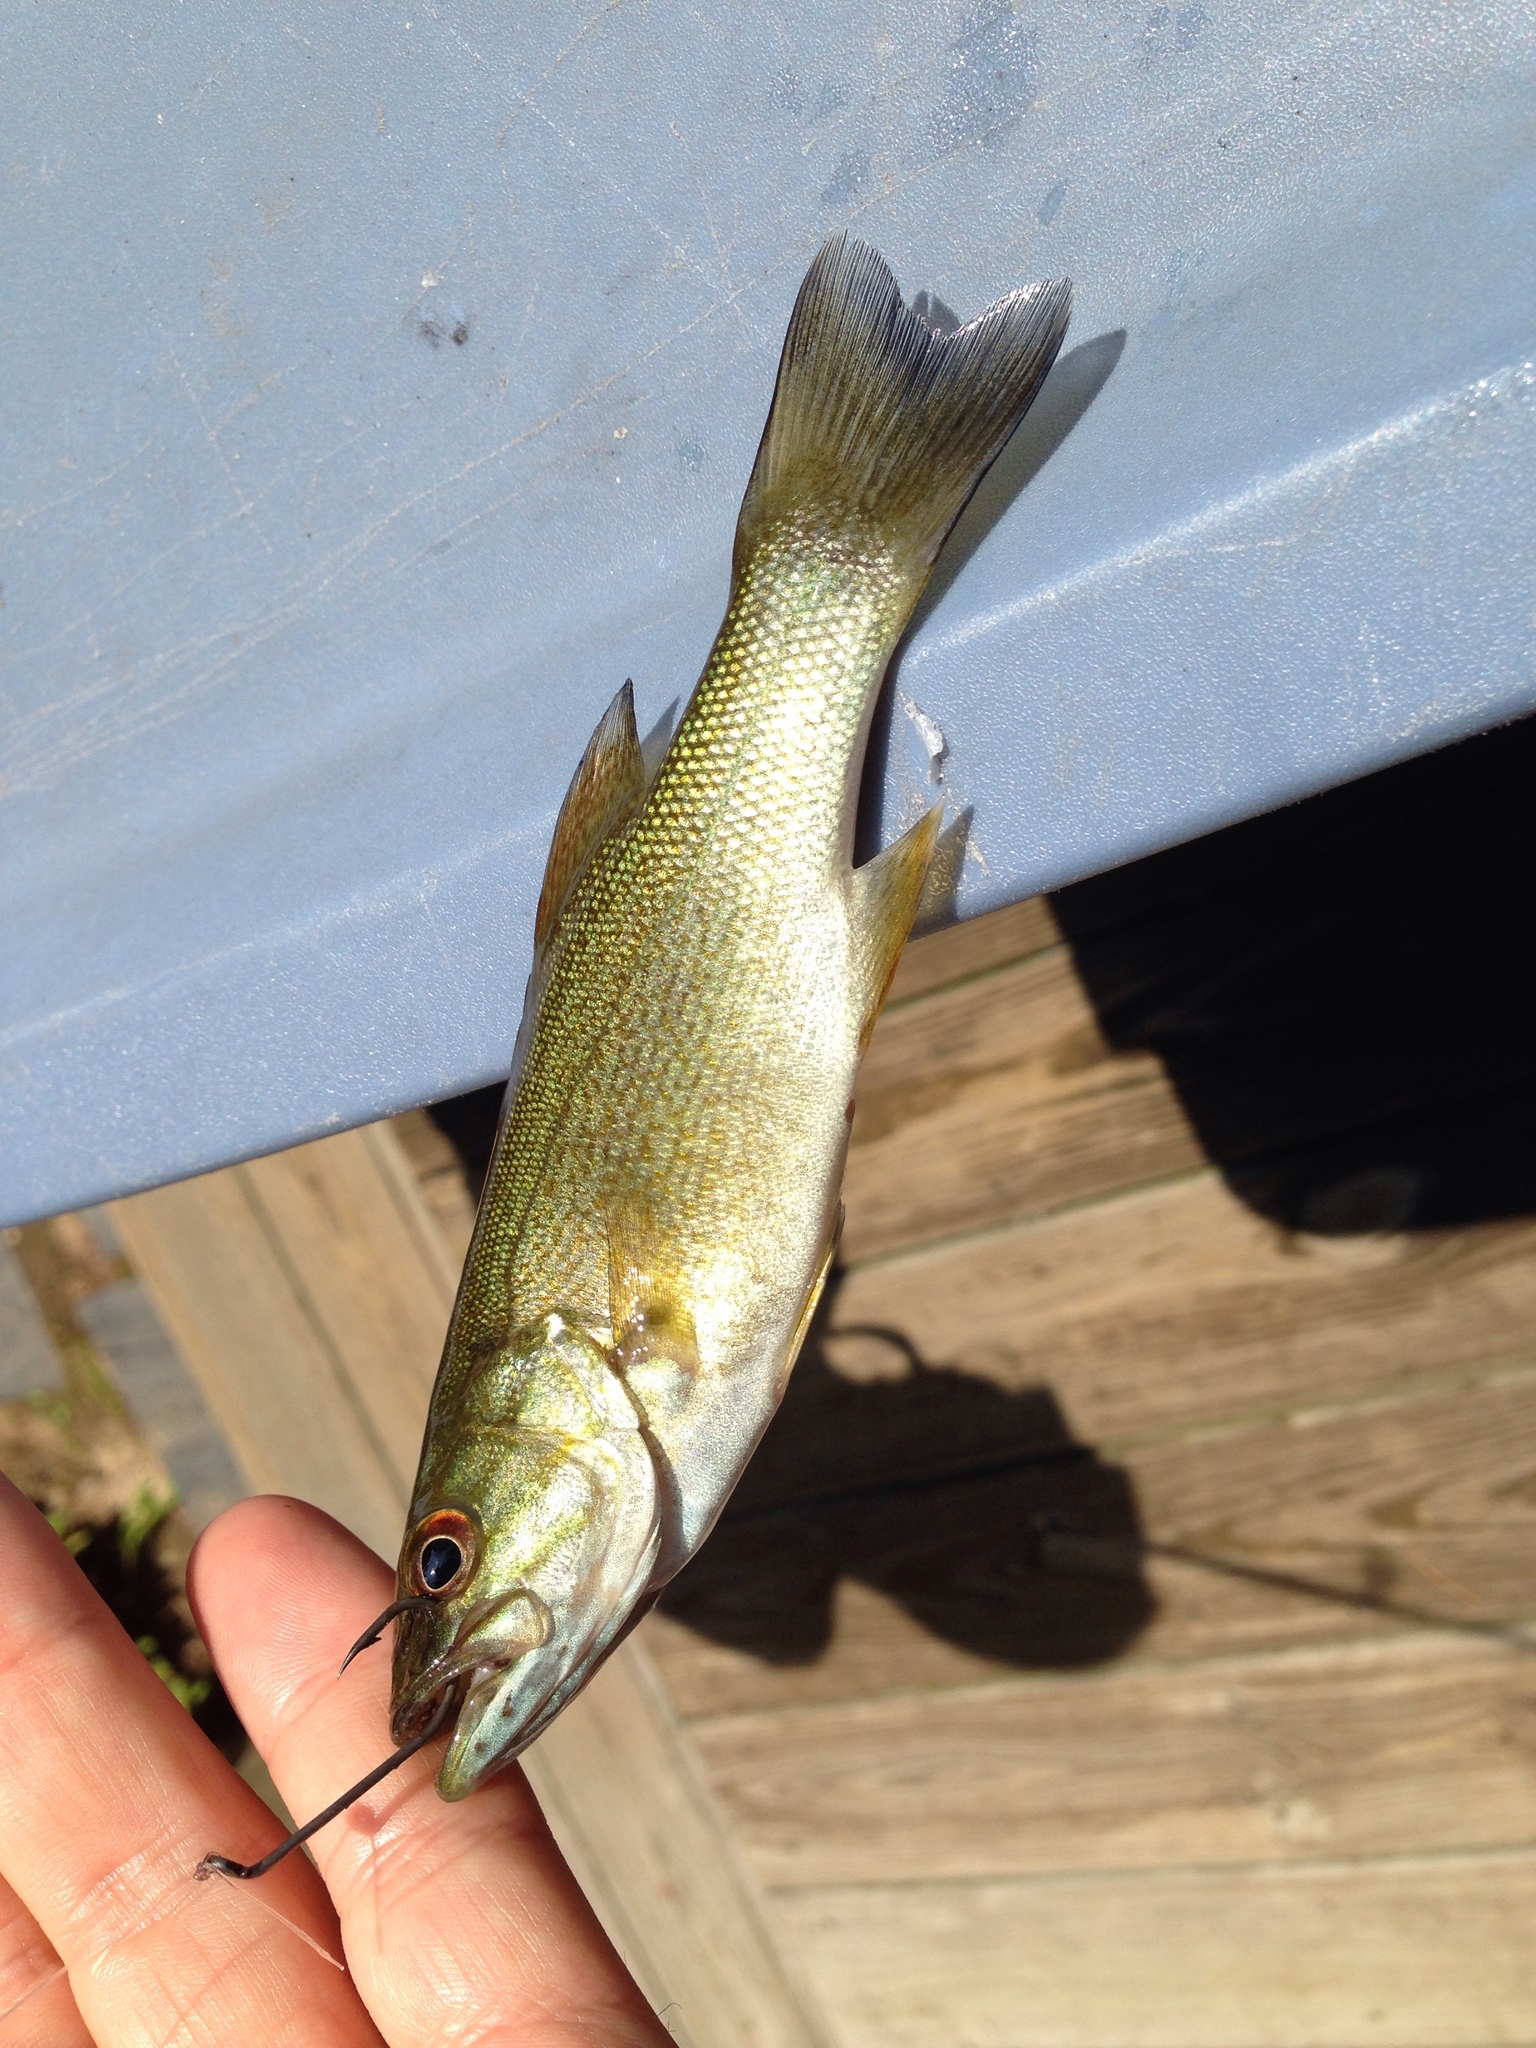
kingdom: Animalia
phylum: Chordata
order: Perciformes
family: Centrarchidae
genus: Micropterus
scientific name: Micropterus dolomieu
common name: Smallmouth bass
